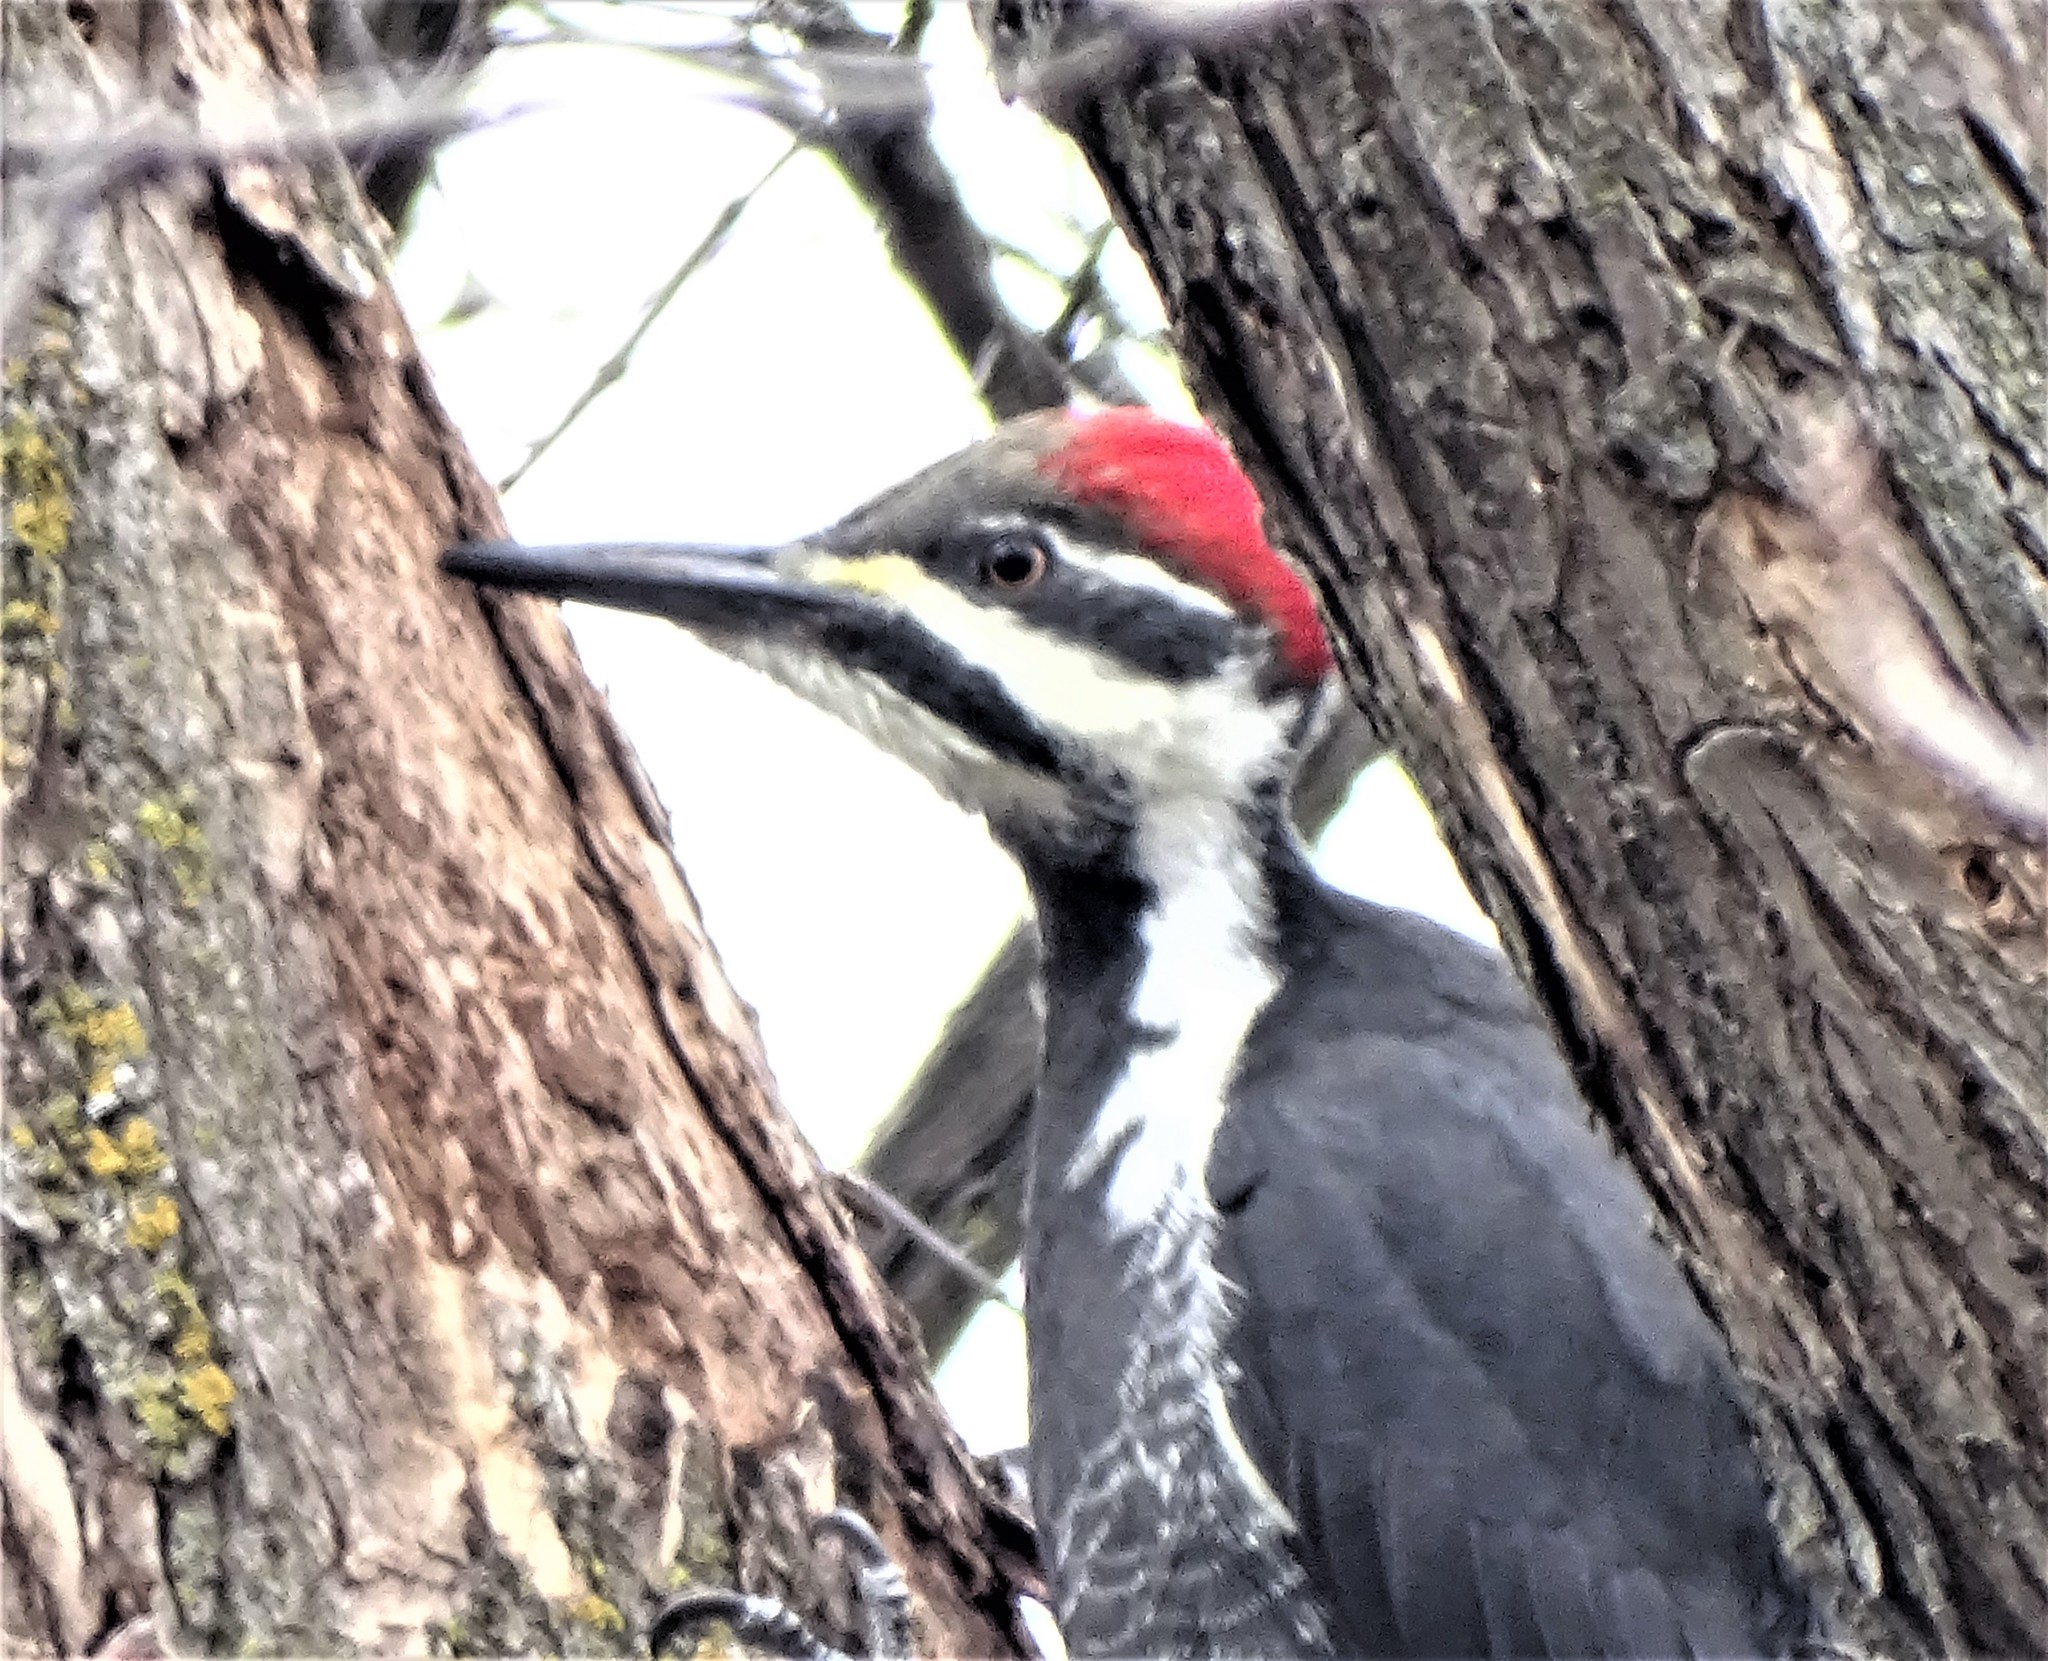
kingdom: Animalia
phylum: Chordata
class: Aves
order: Piciformes
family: Picidae
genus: Dryocopus
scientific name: Dryocopus pileatus
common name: Pileated woodpecker
